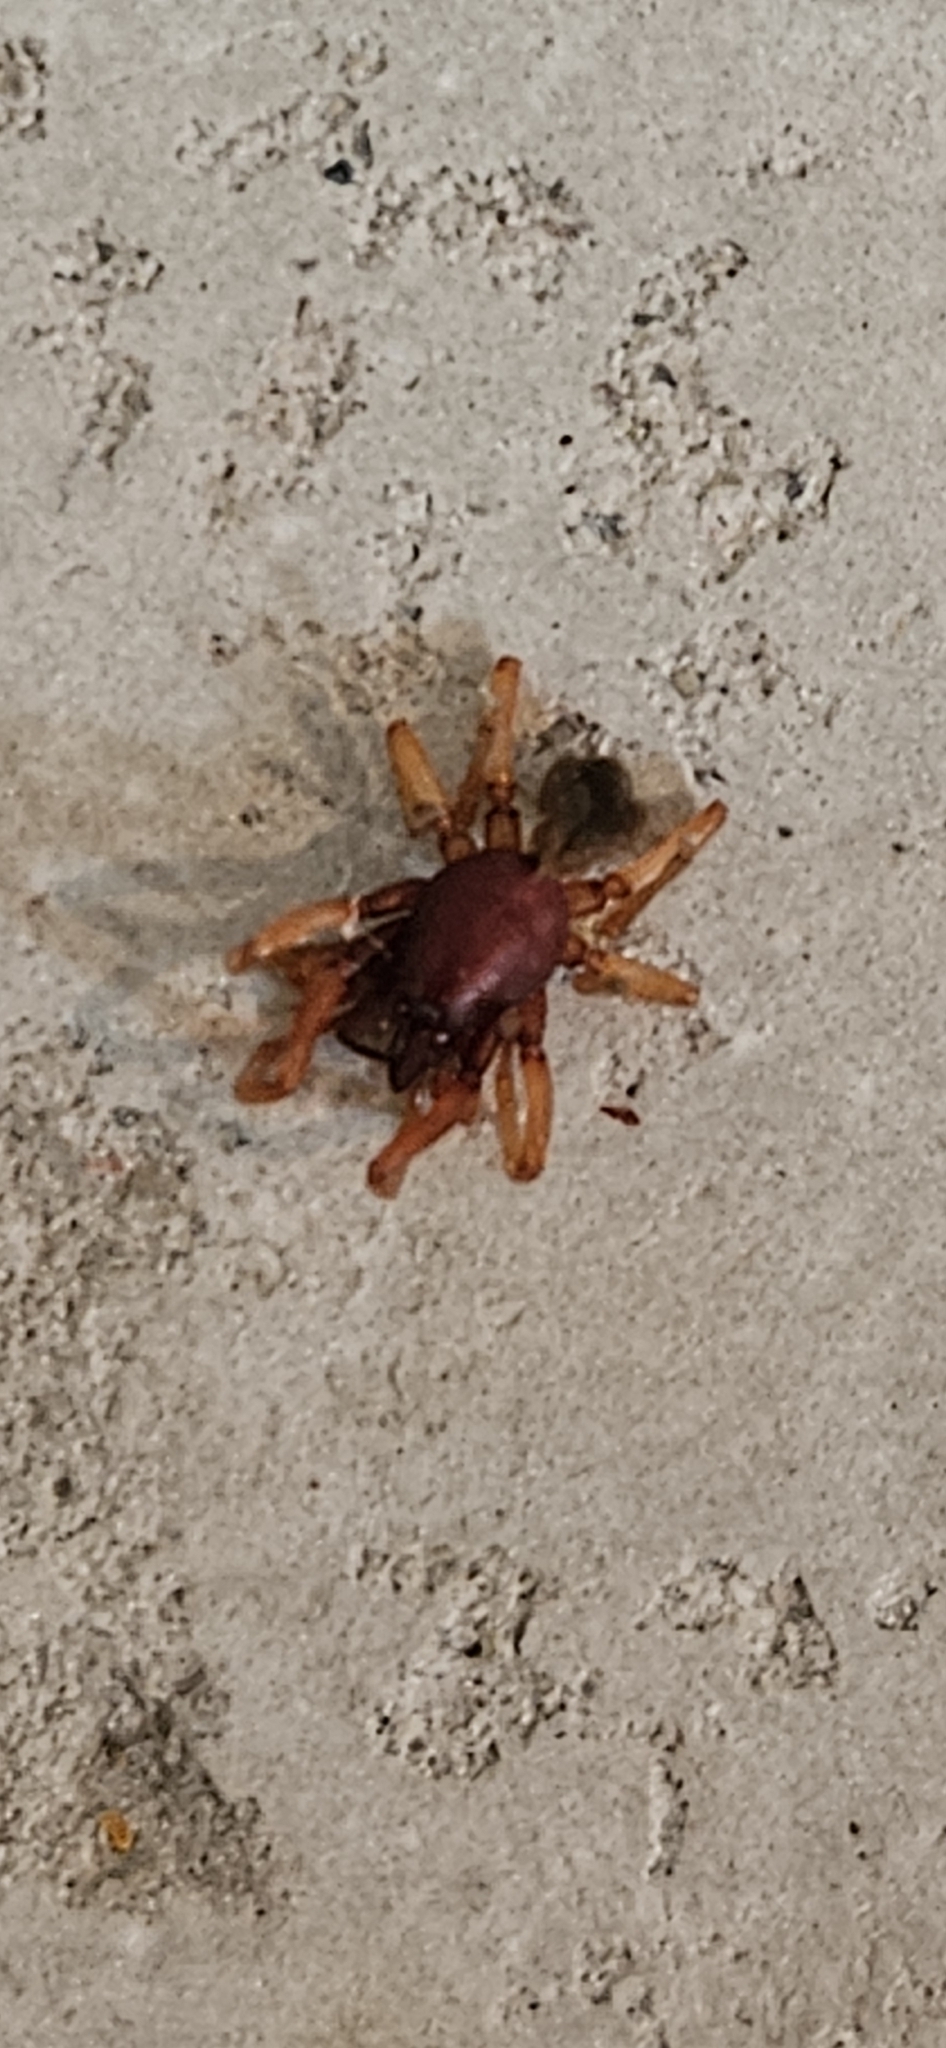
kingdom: Animalia
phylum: Arthropoda
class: Arachnida
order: Araneae
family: Dysderidae
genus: Dysdera
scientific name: Dysdera crocata
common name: Woodlouse spider
